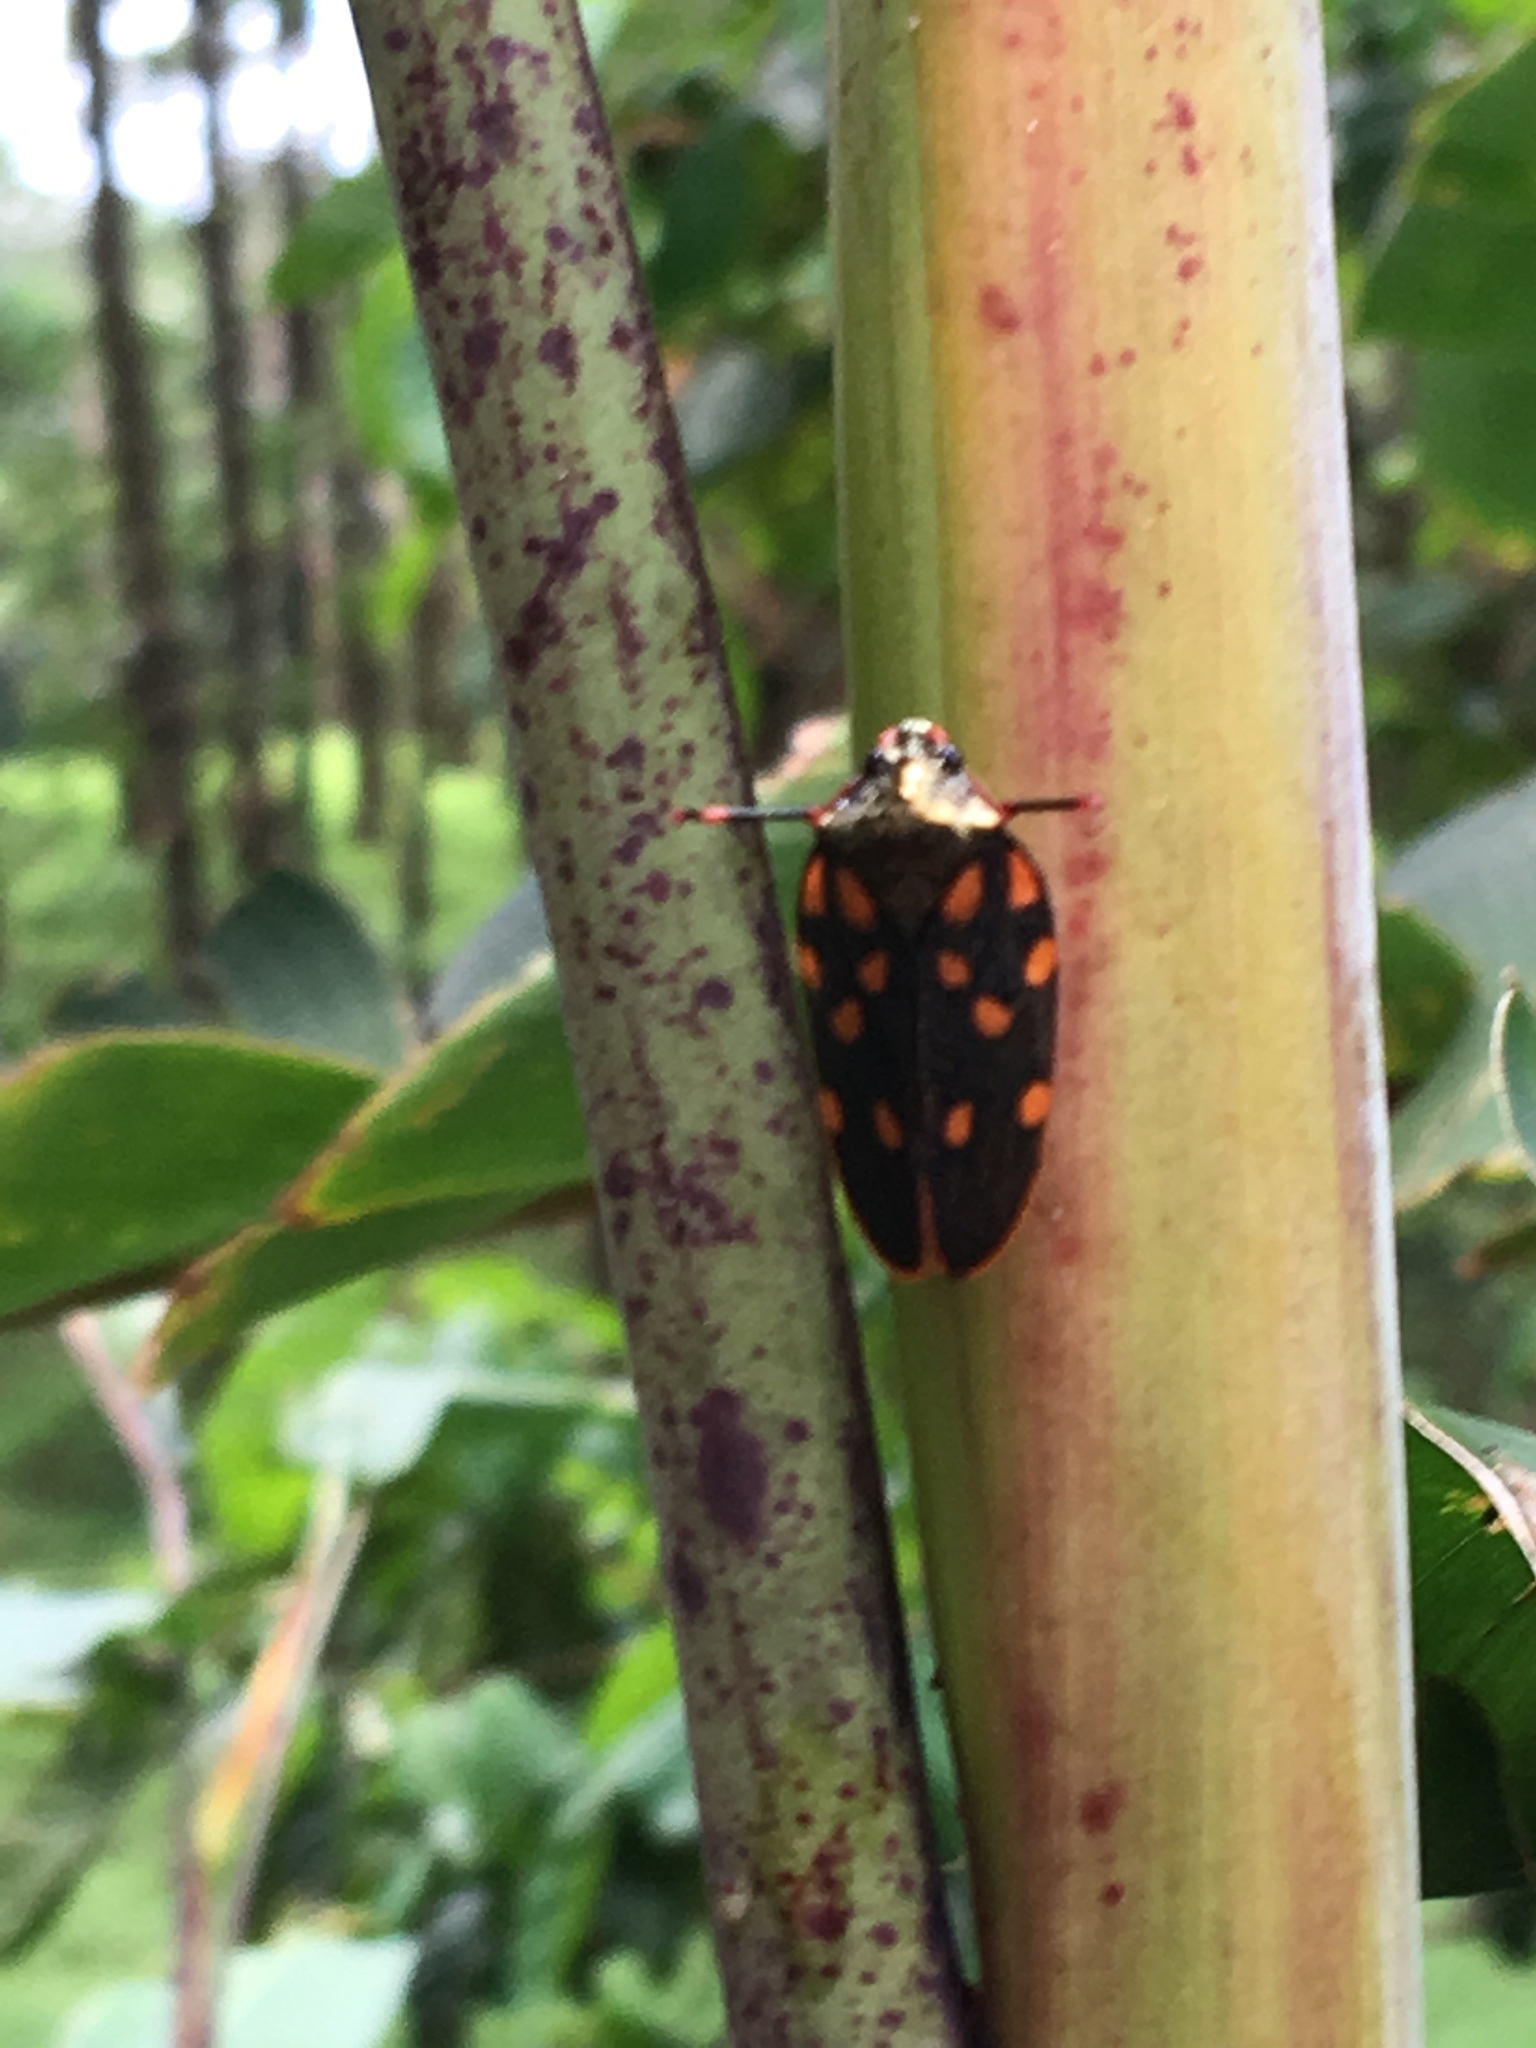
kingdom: Animalia
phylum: Arthropoda
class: Insecta
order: Hemiptera
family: Cercopidae
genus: Mahanarva
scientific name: Mahanarva costaricensis
